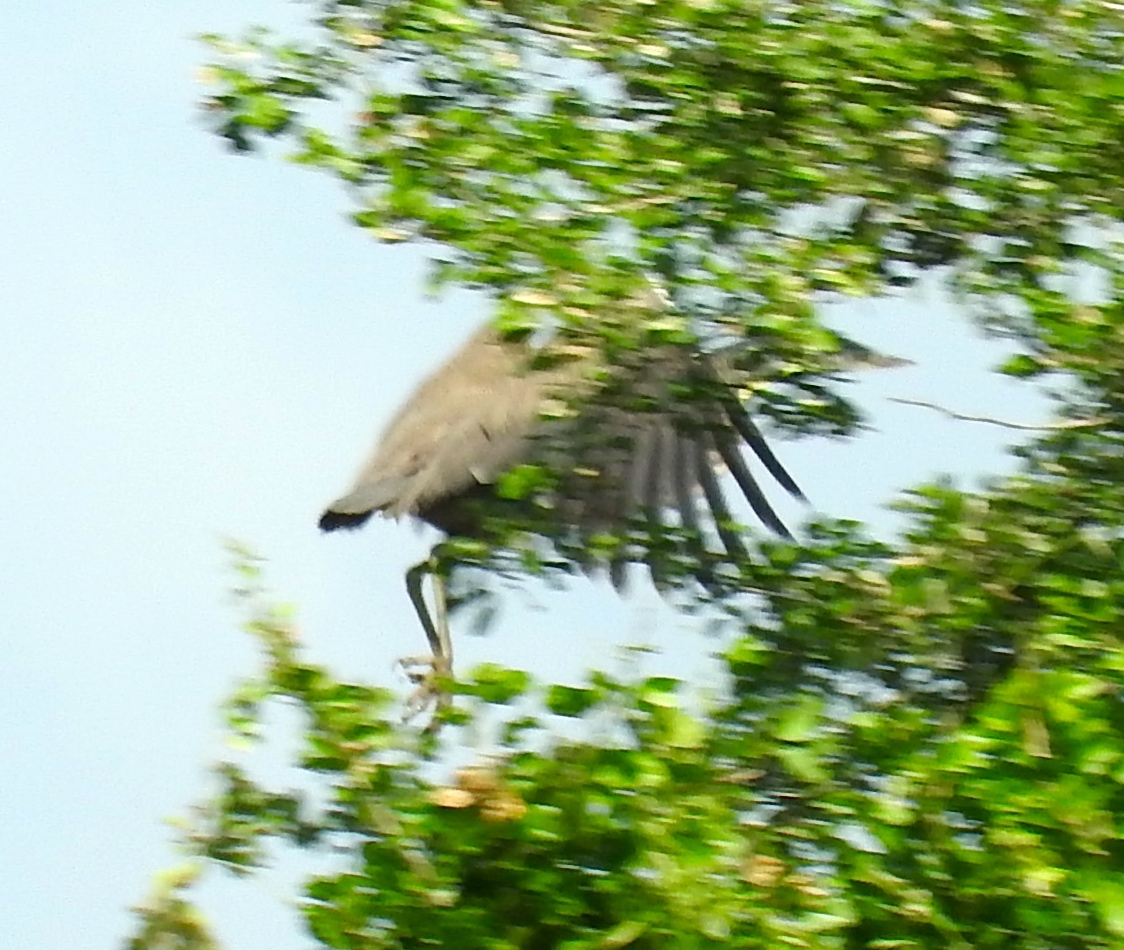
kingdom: Animalia
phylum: Chordata
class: Aves
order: Pelecaniformes
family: Ardeidae
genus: Tigrisoma
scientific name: Tigrisoma mexicanum
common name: Bare-throated tiger-heron
